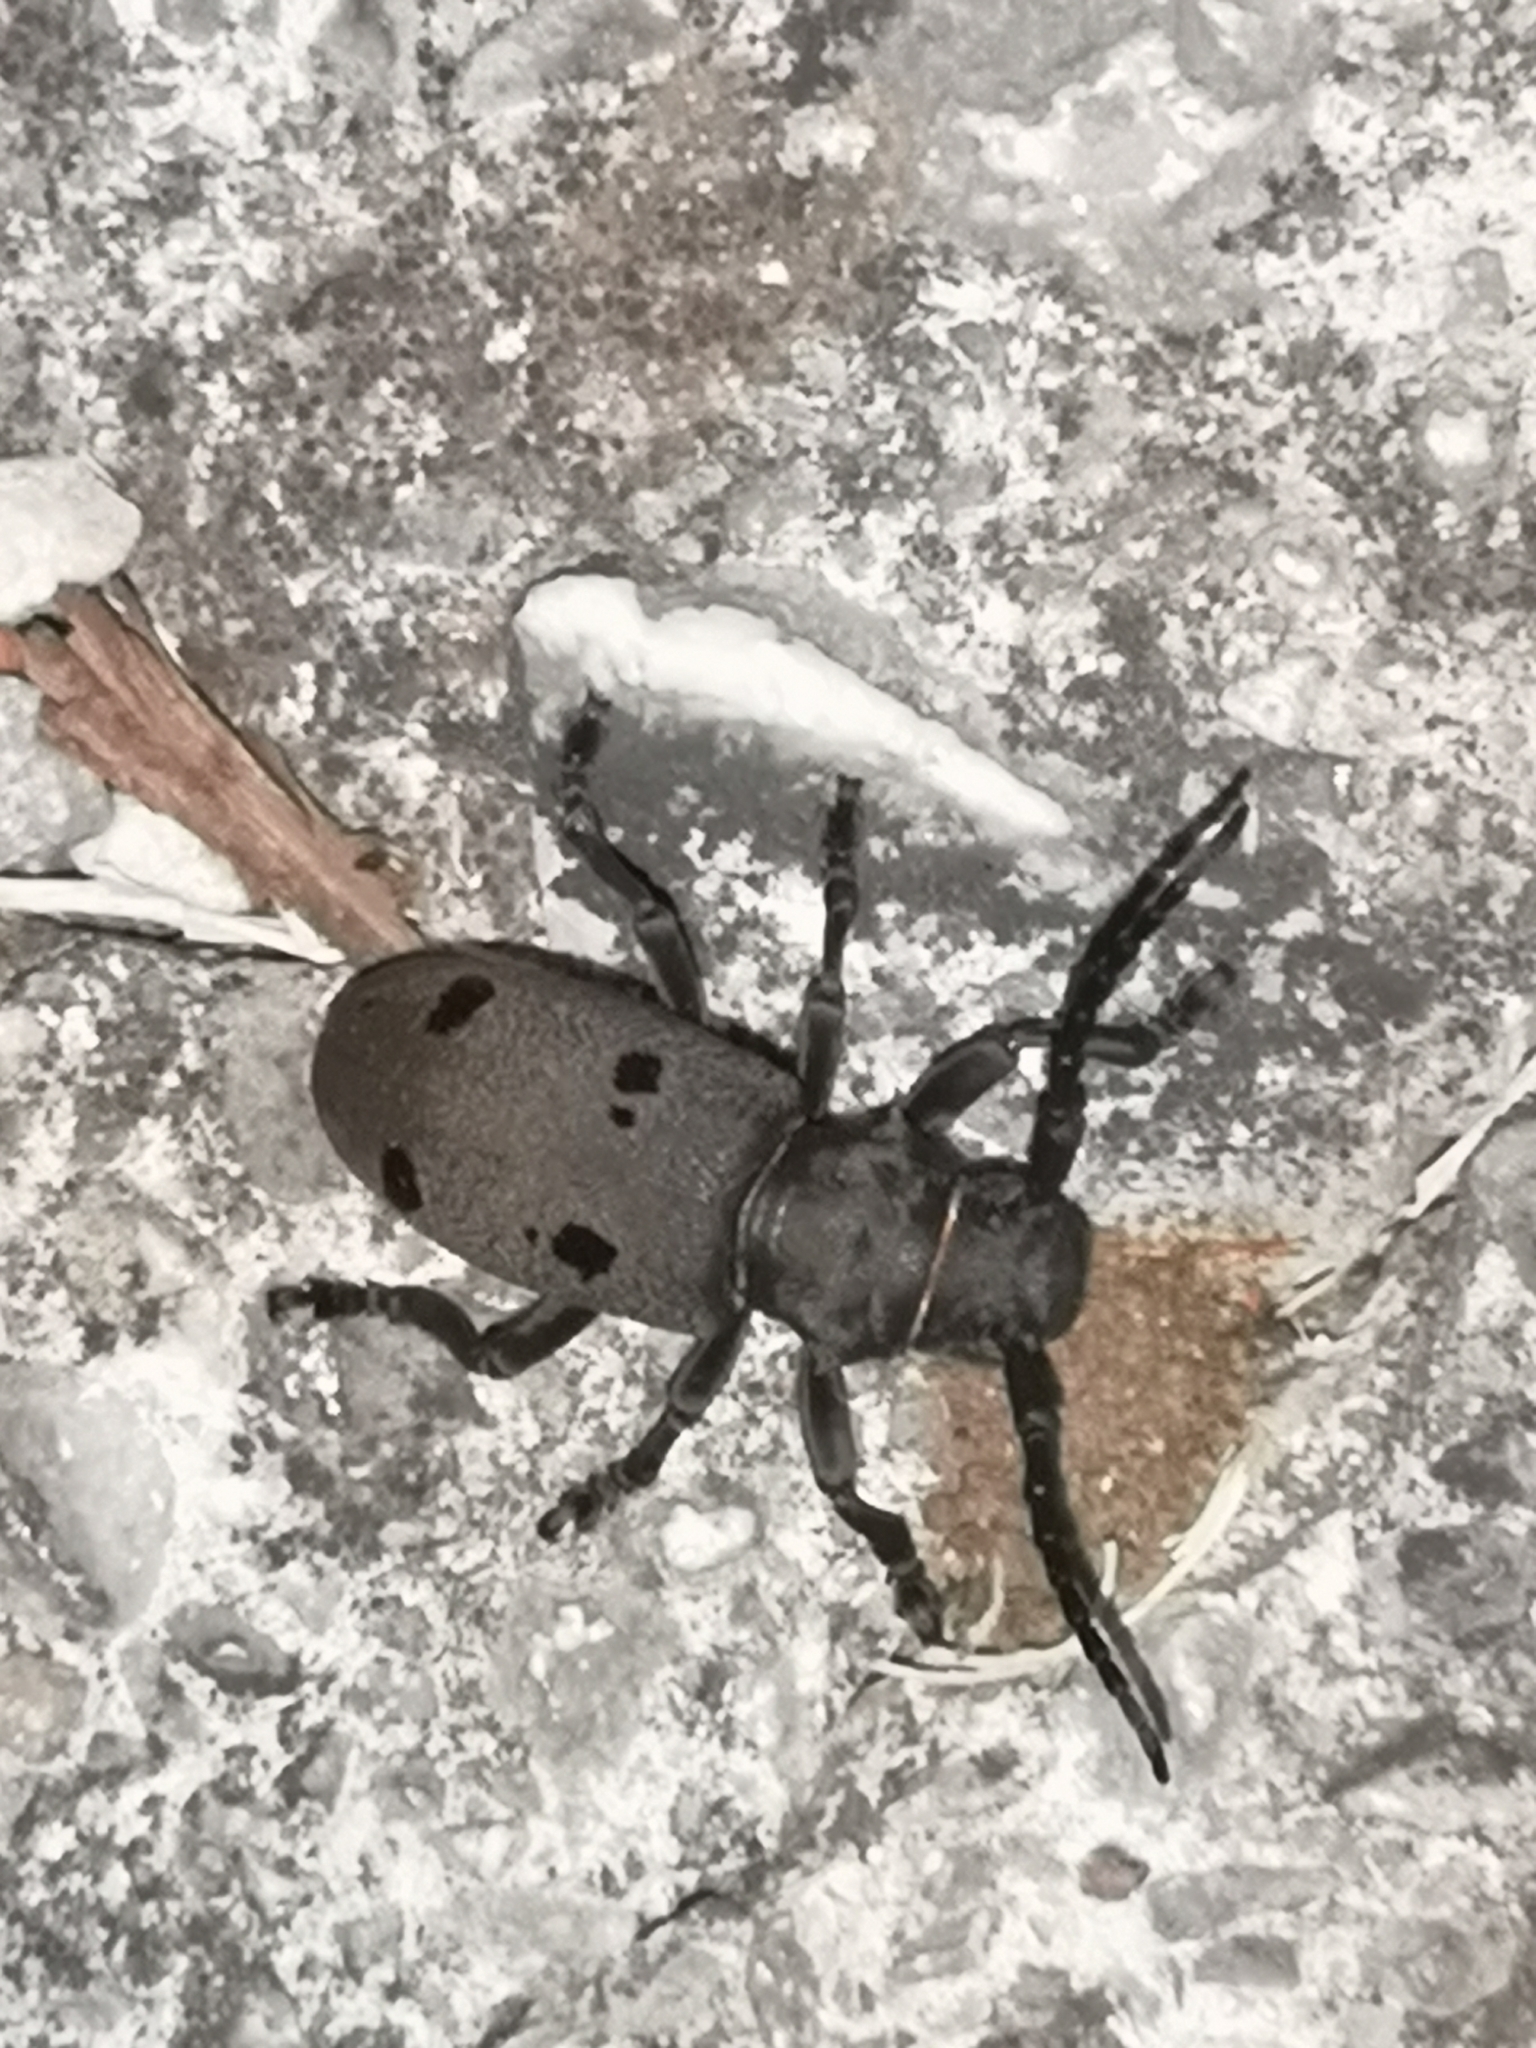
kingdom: Animalia
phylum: Arthropoda
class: Insecta
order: Coleoptera
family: Cerambycidae
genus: Herophila
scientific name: Herophila tristis
